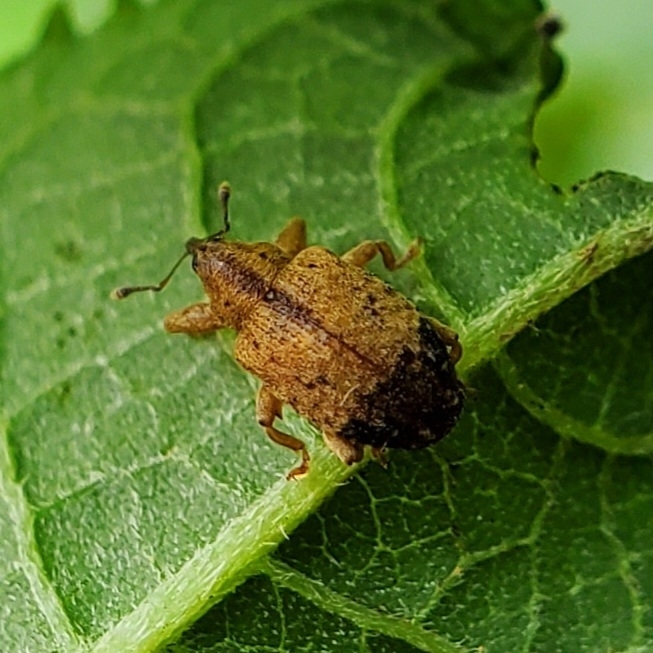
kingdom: Animalia
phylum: Arthropoda
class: Insecta
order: Coleoptera
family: Curculionidae
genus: Ochyromera
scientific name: Ochyromera ligustri
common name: Weevil
